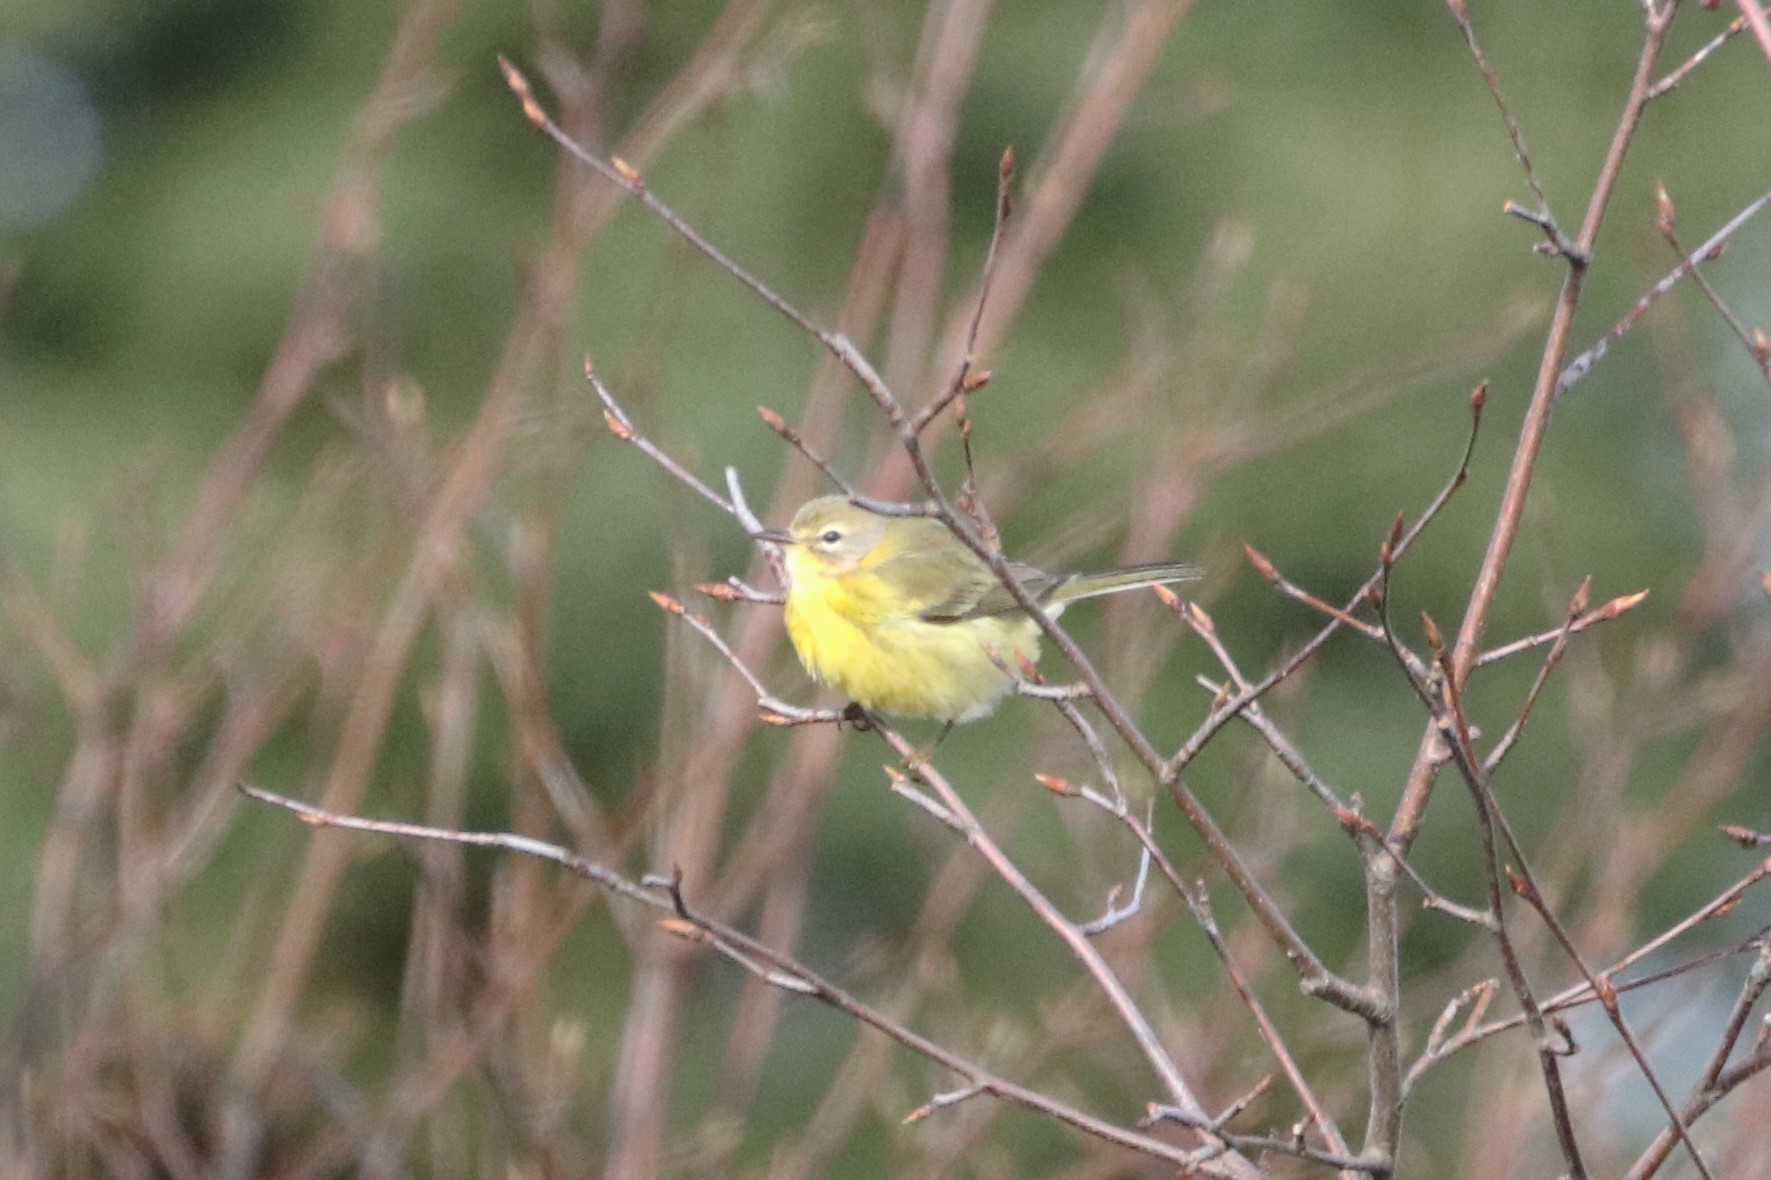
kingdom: Animalia
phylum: Chordata
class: Aves
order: Passeriformes
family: Parulidae
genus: Setophaga
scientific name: Setophaga discolor
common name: Prairie warbler
